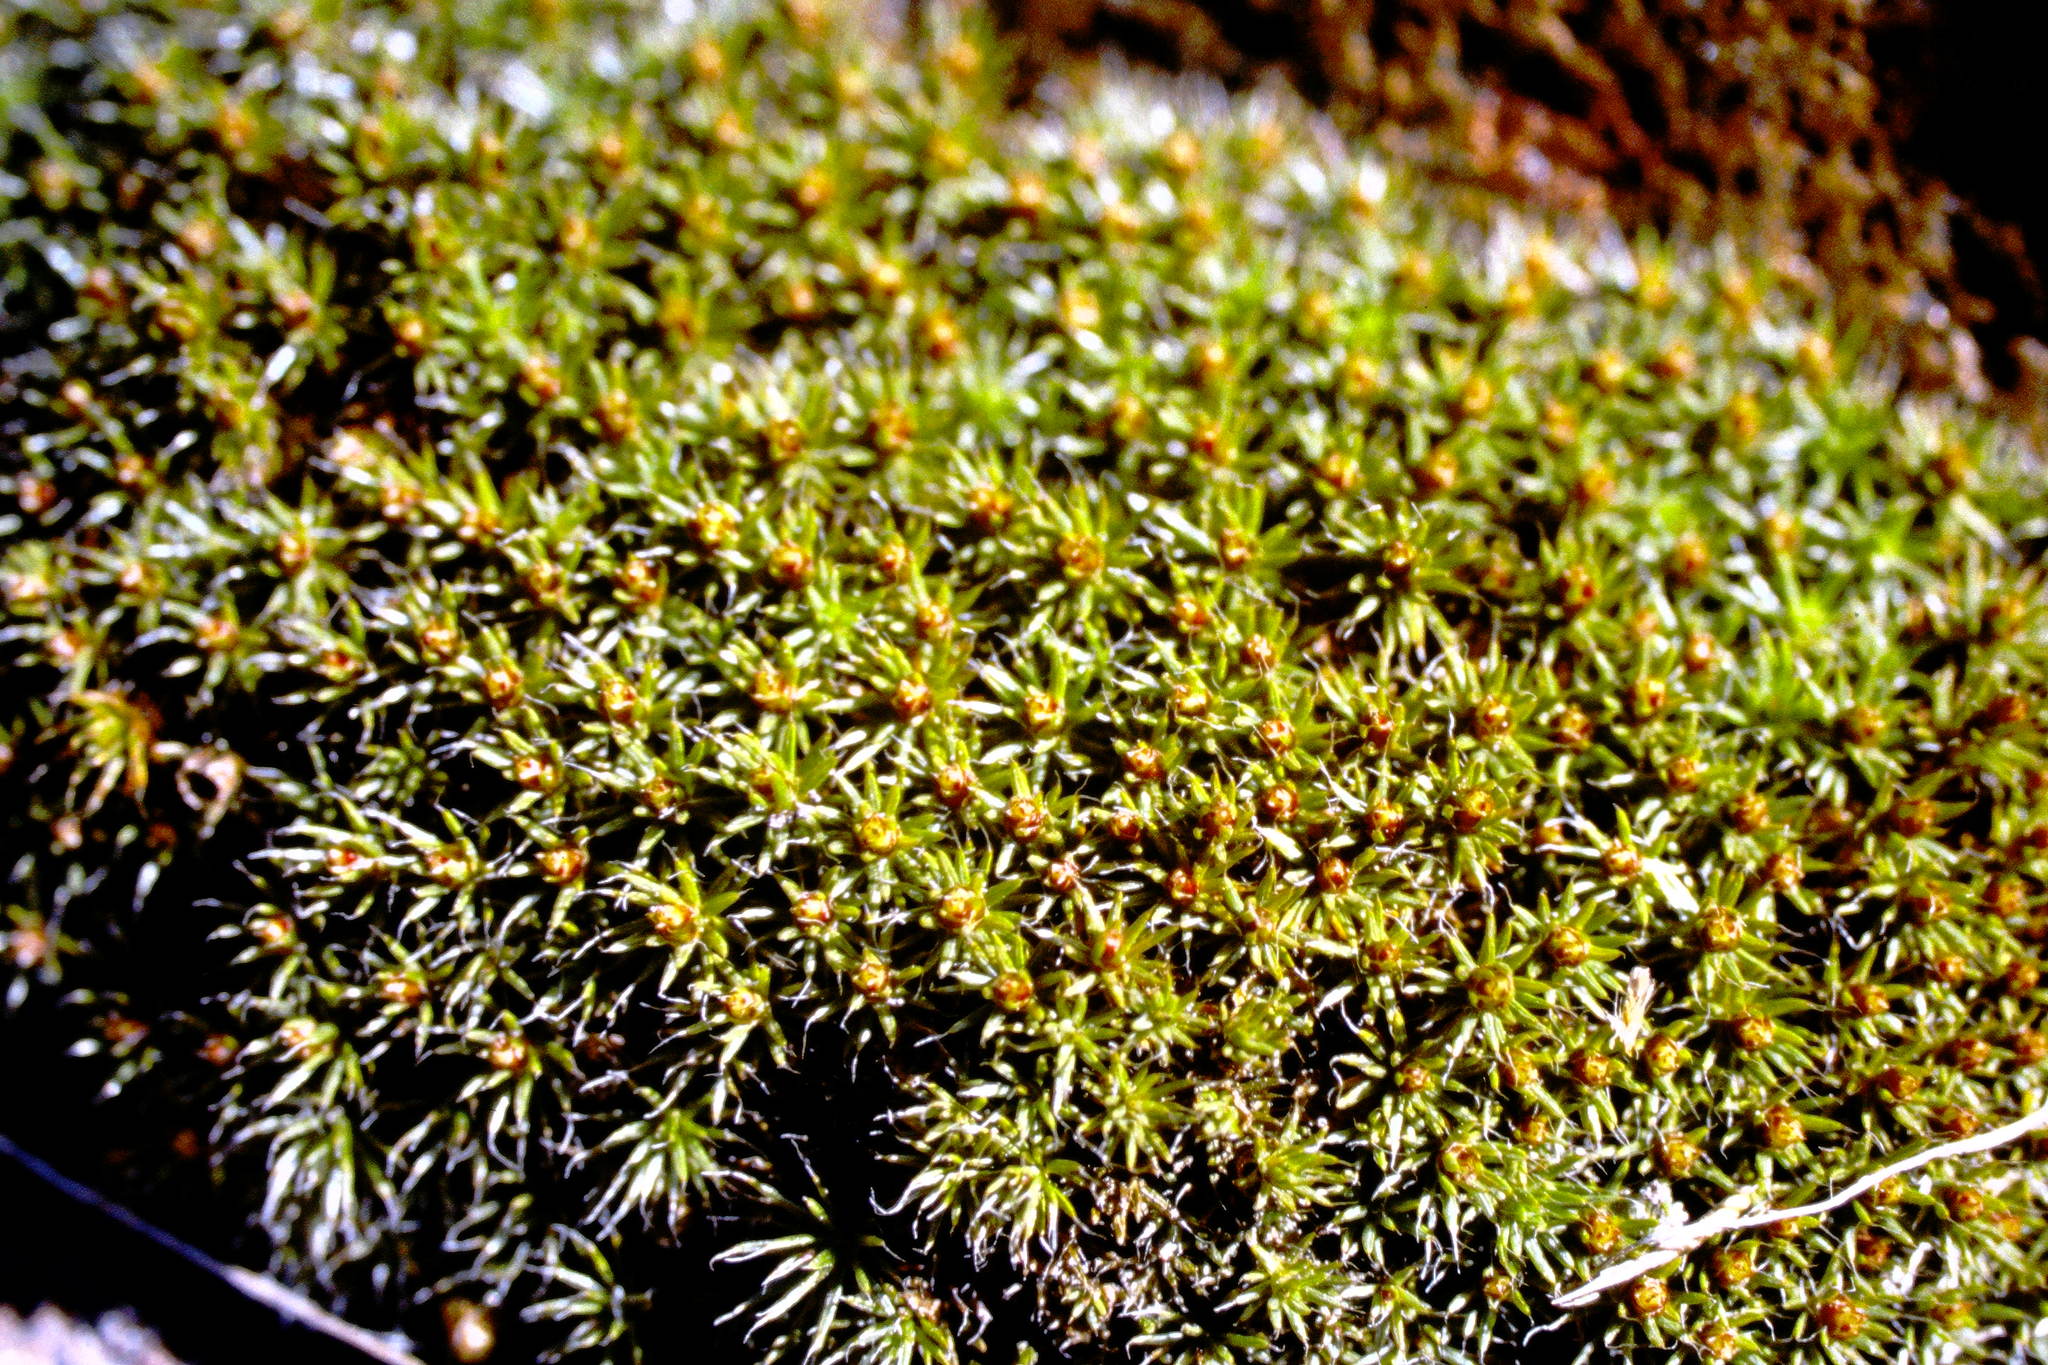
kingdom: Plantae
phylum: Bryophyta
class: Polytrichopsida
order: Polytrichales
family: Polytrichaceae
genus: Polytrichum
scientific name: Polytrichum piliferum
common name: Bristly haircap
